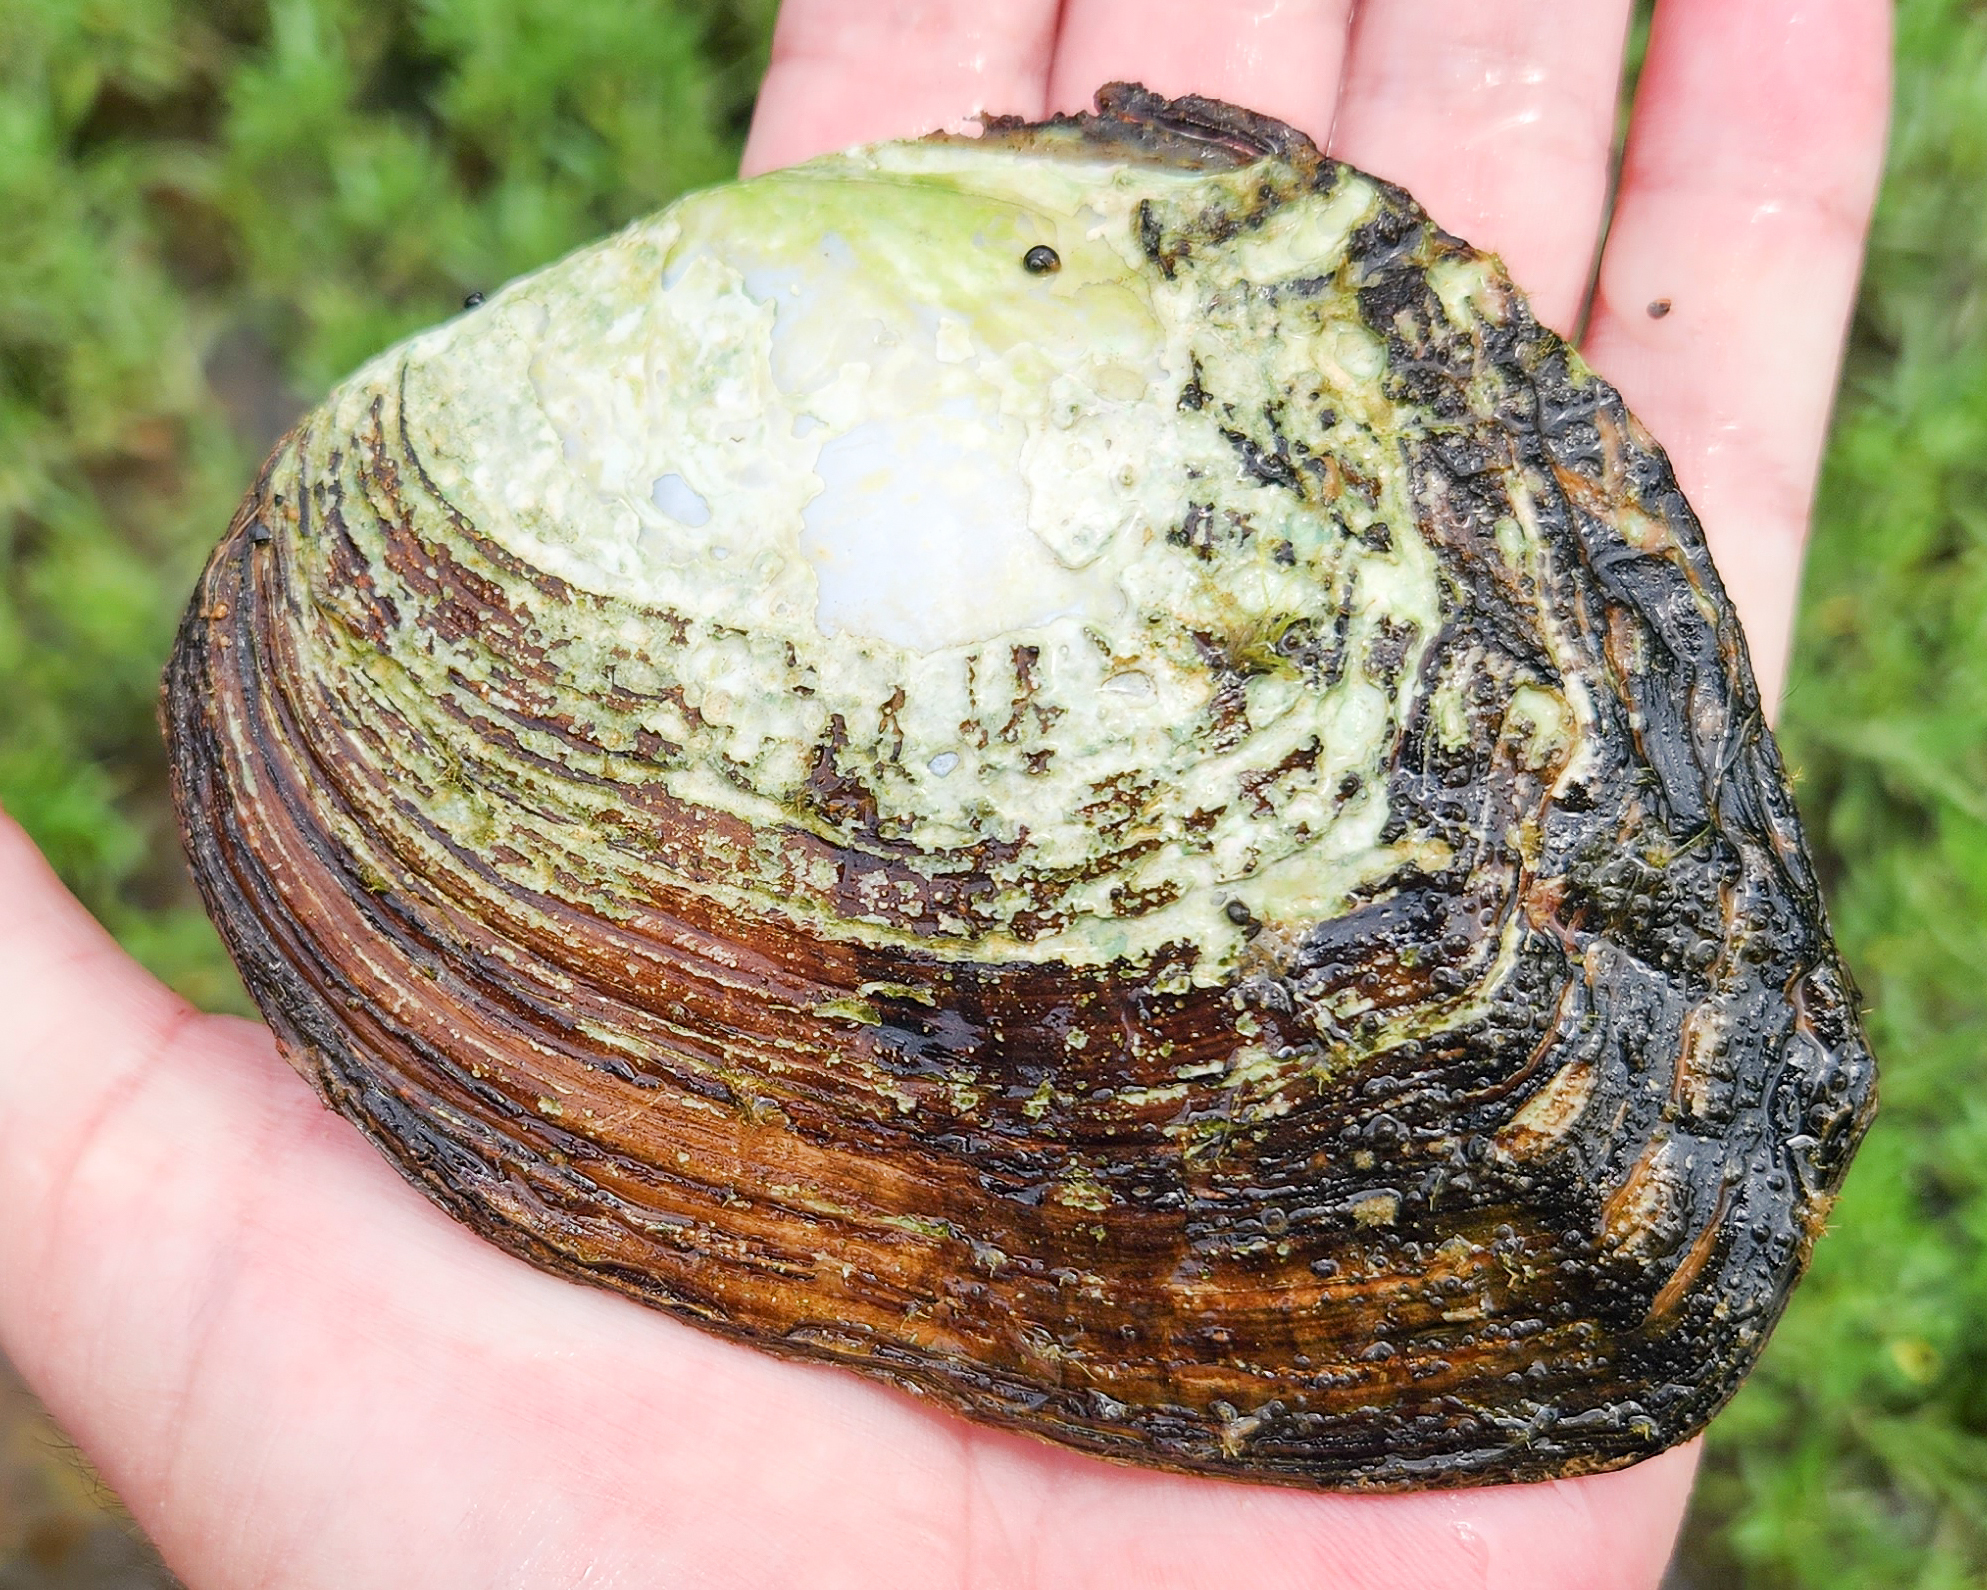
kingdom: Animalia
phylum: Mollusca
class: Bivalvia
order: Unionida
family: Unionidae
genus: Lasmigona
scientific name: Lasmigona alabamensis
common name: Alabama heelsplitter
